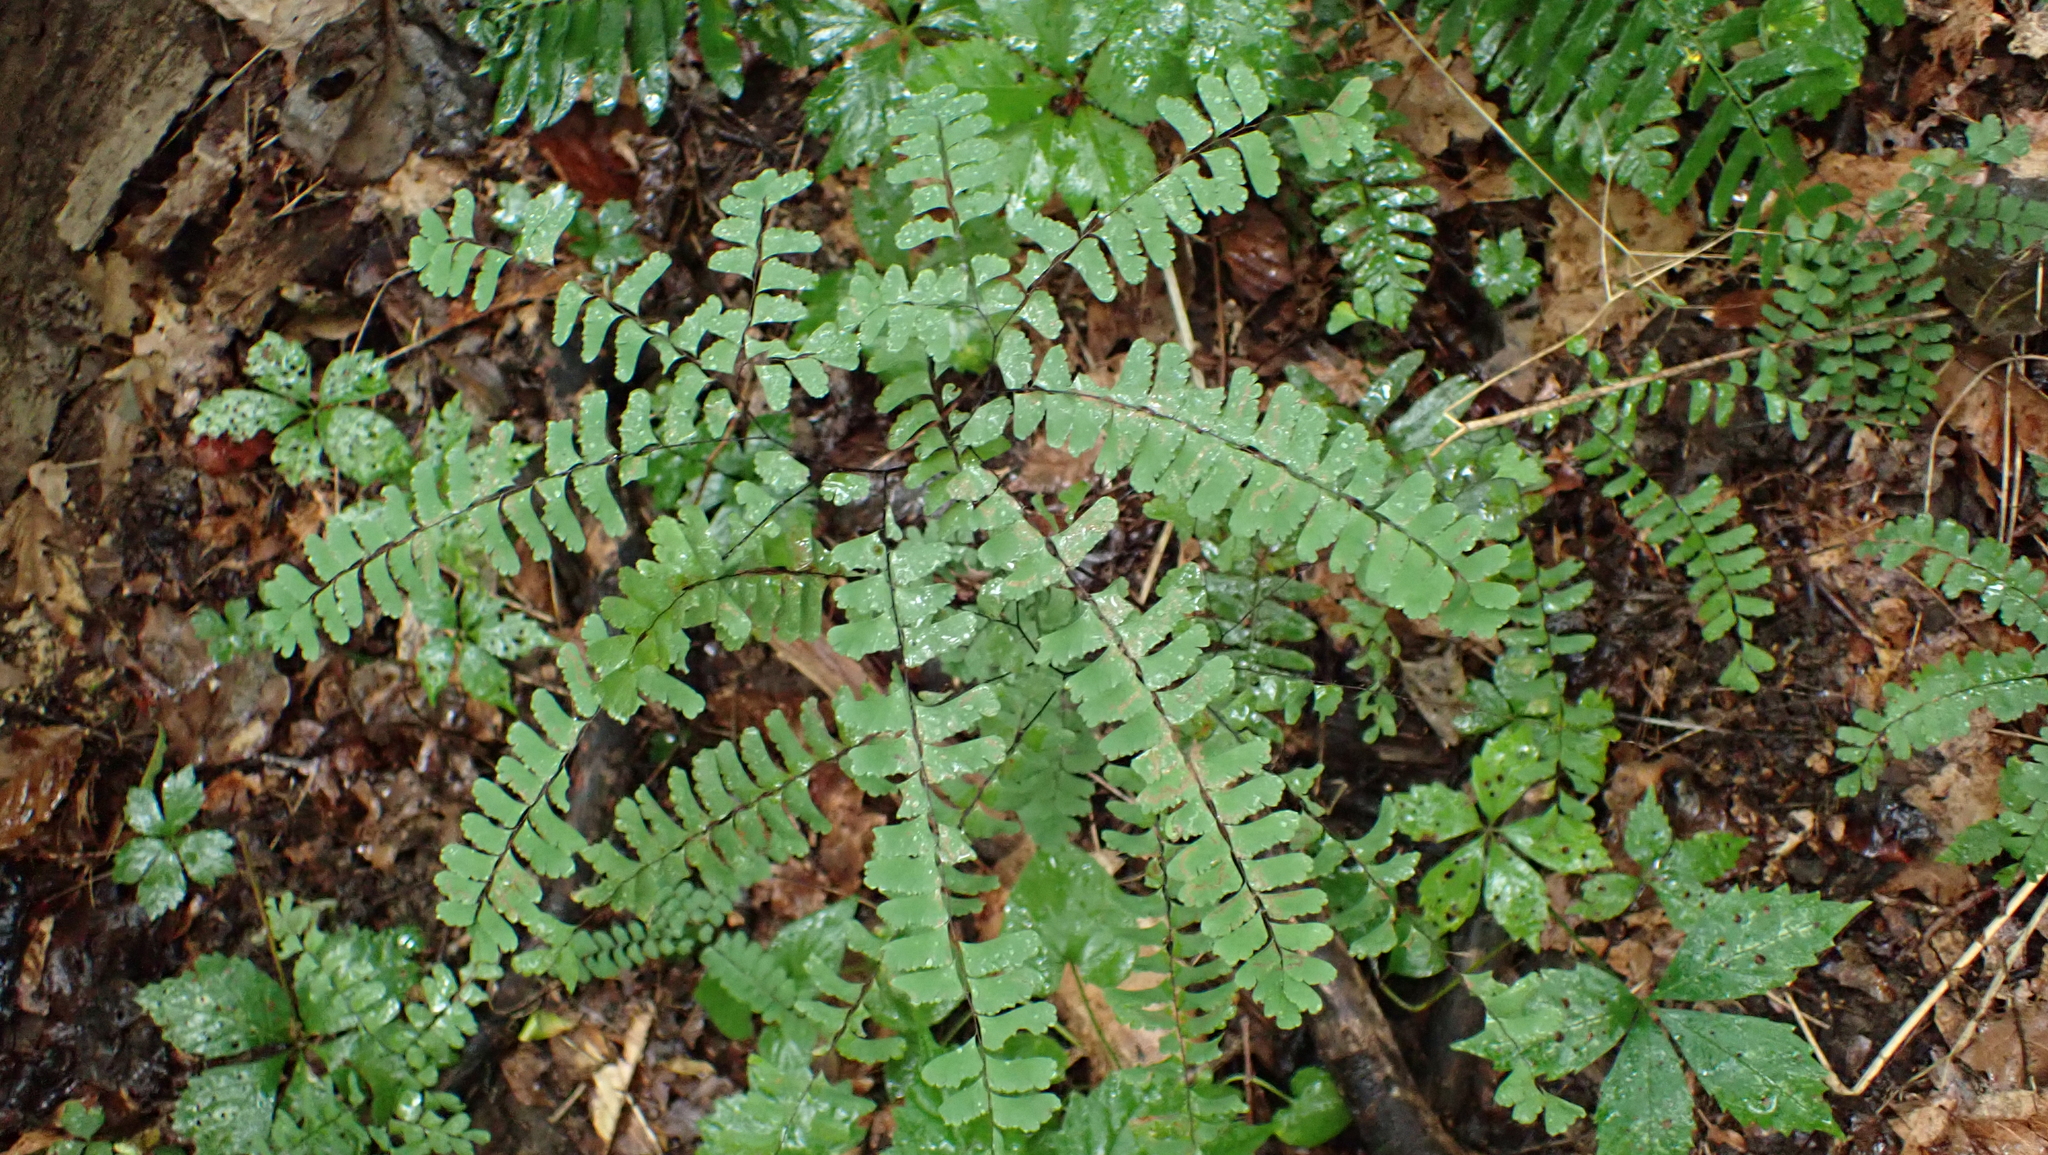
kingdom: Plantae
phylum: Tracheophyta
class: Polypodiopsida
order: Polypodiales
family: Pteridaceae
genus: Adiantum
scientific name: Adiantum pedatum
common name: Five-finger fern
